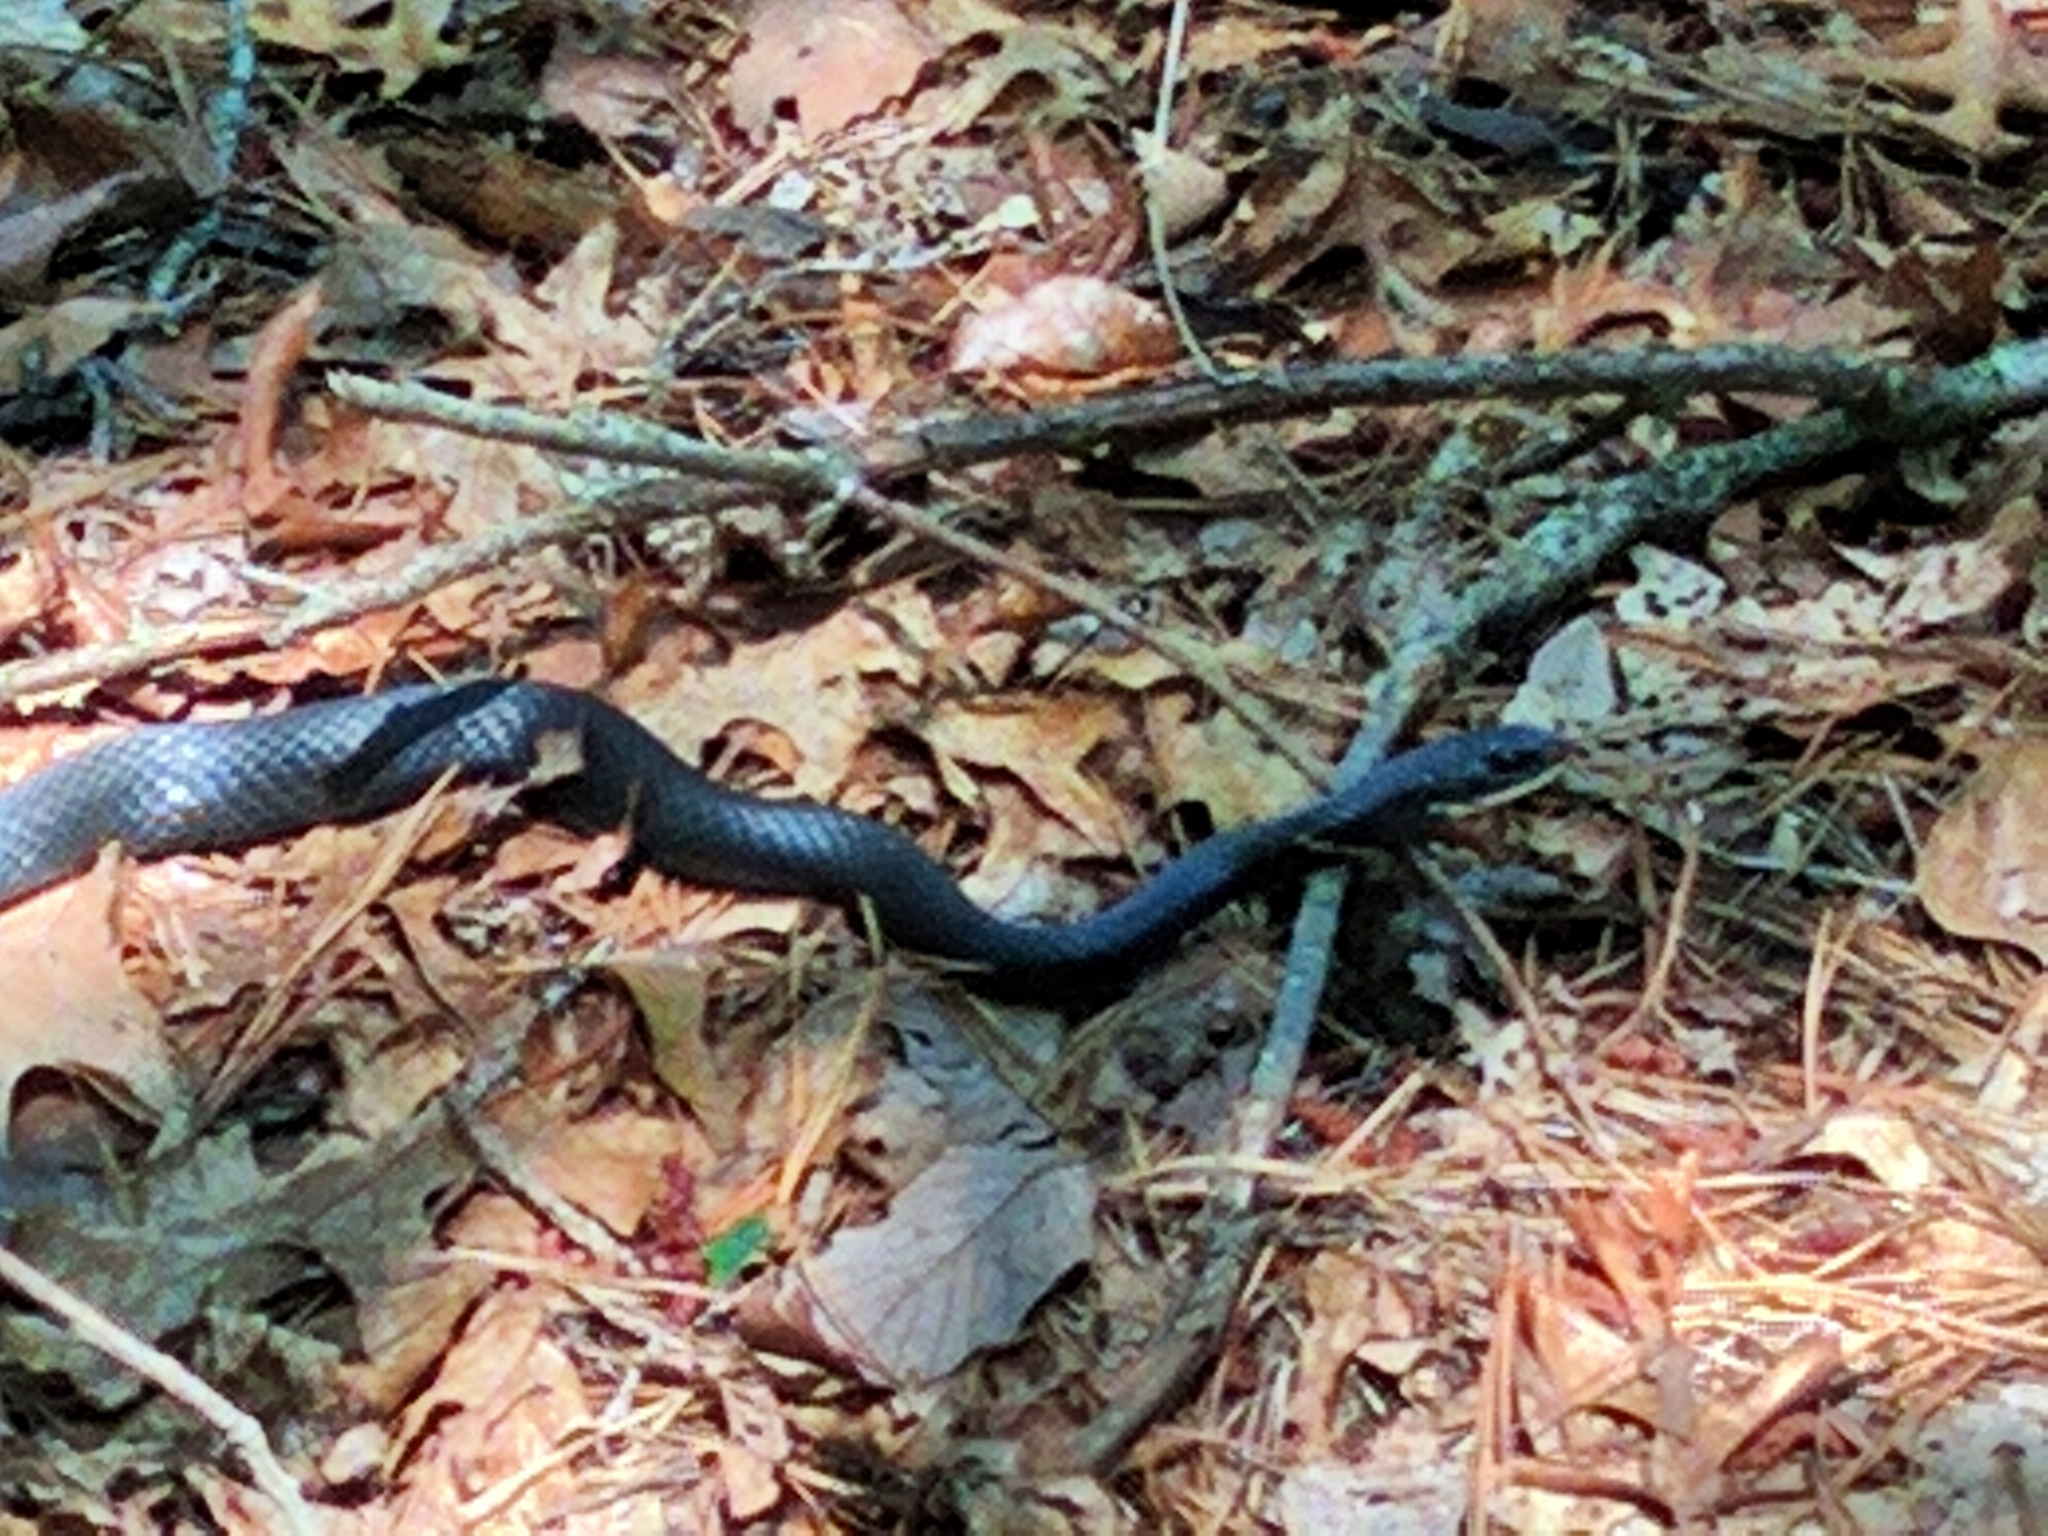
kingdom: Animalia
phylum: Chordata
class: Squamata
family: Colubridae
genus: Coluber
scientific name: Coluber constrictor
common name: Eastern racer
